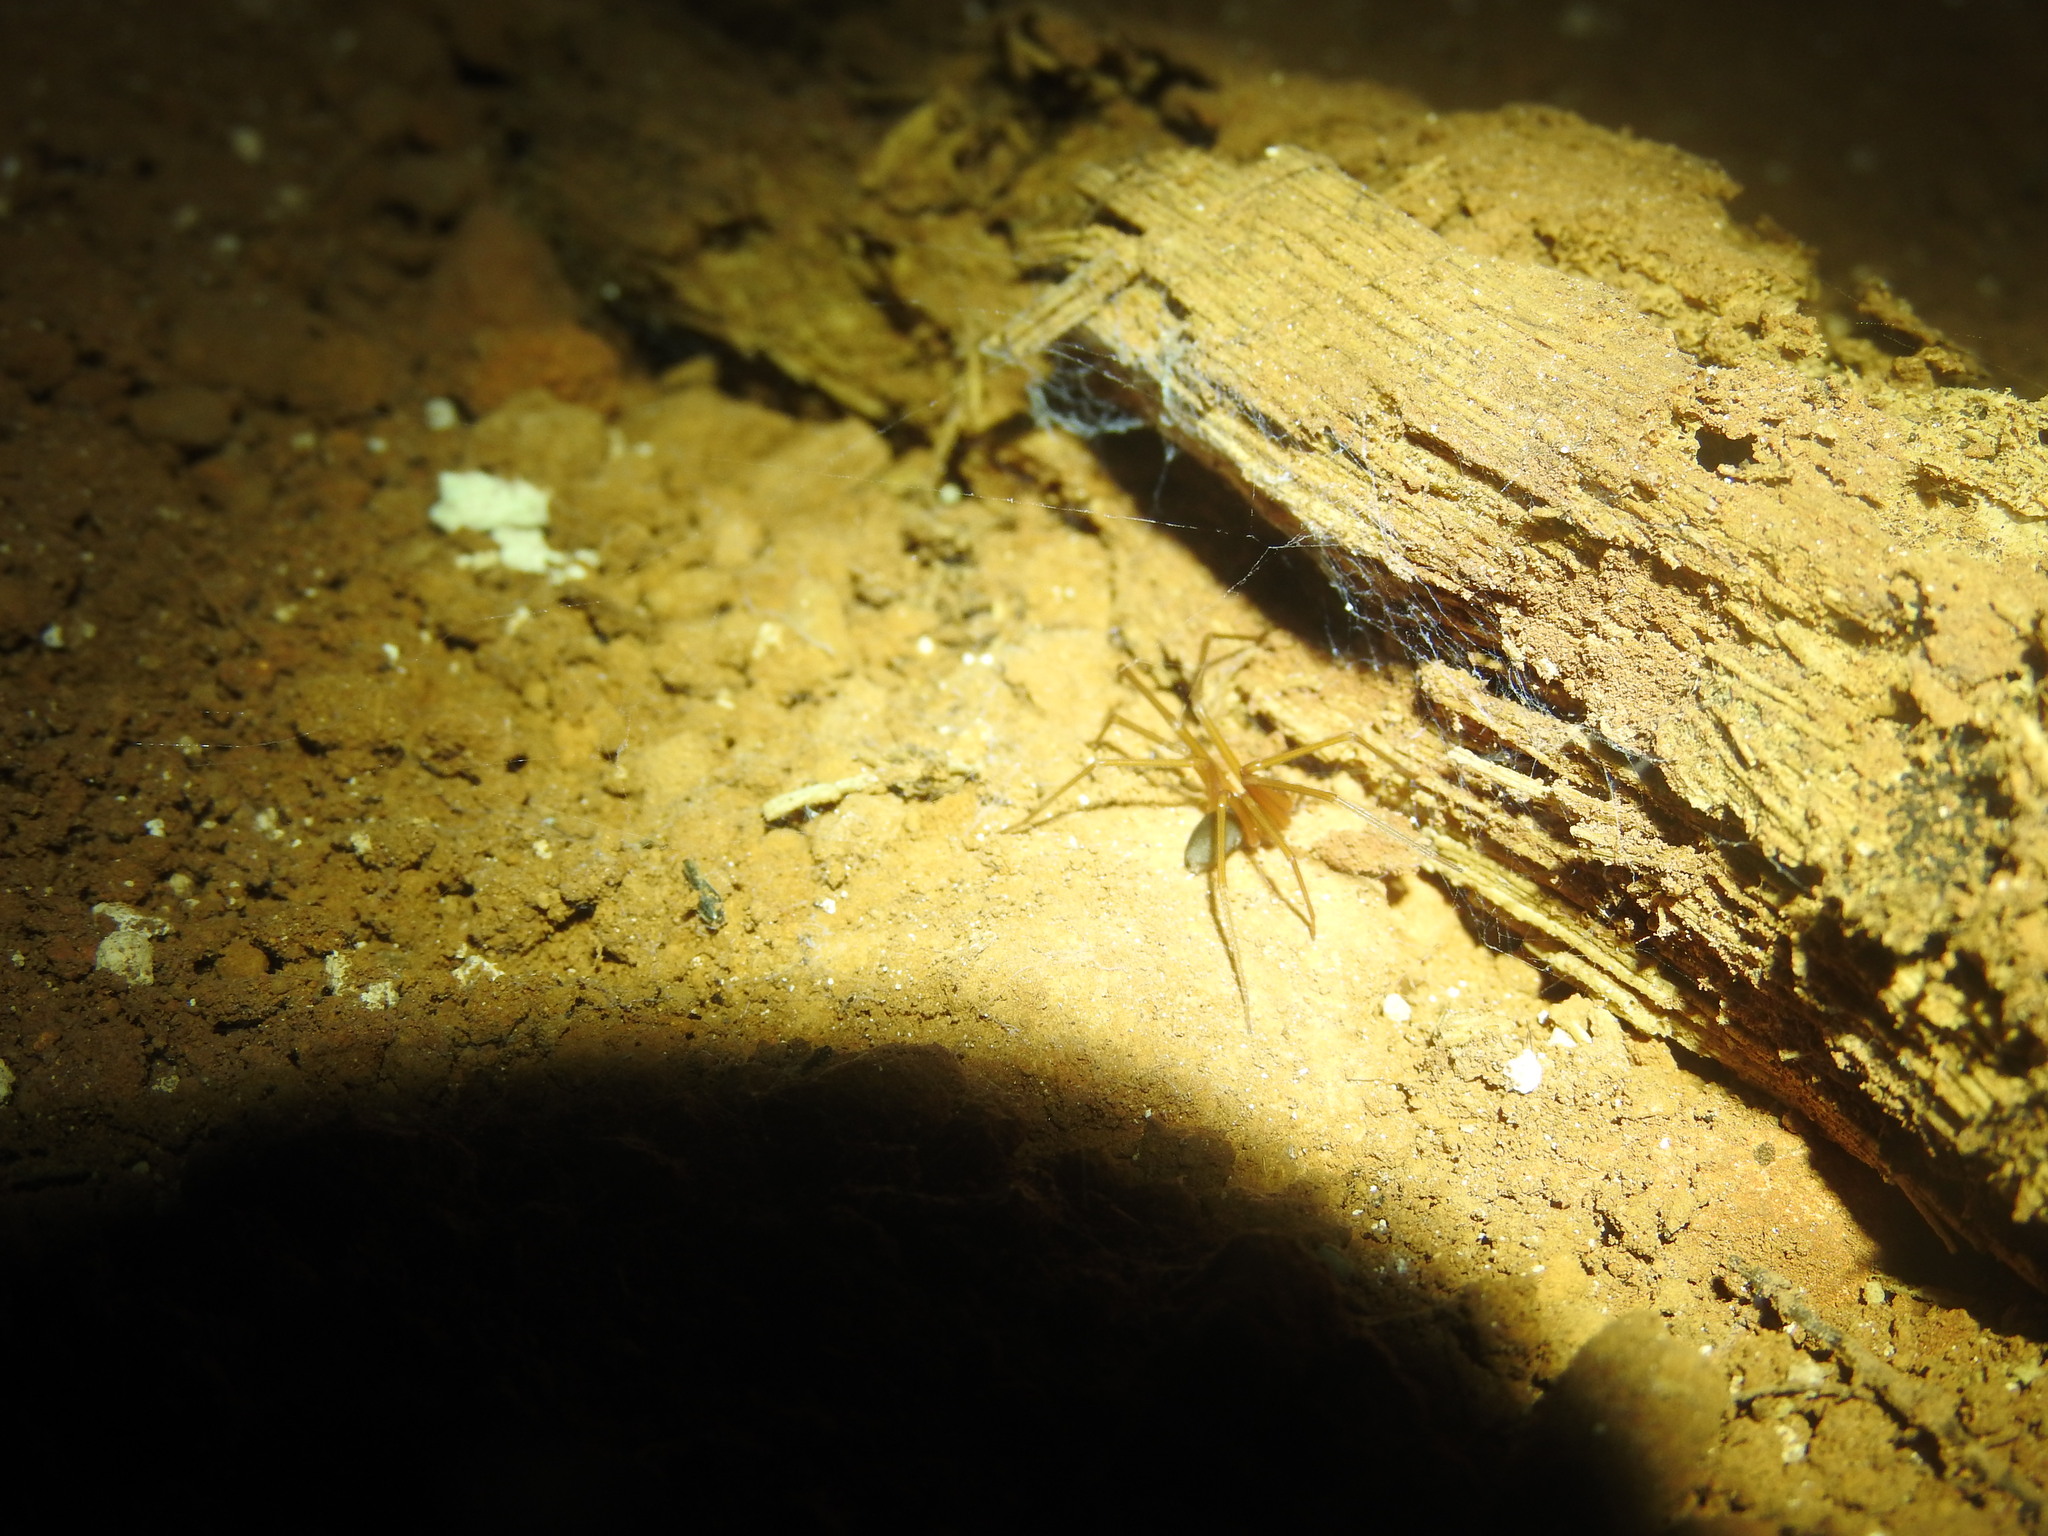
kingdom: Animalia
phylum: Arthropoda
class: Arachnida
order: Araneae
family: Sicariidae
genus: Loxosceles
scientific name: Loxosceles yucatana
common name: Violin spiders
